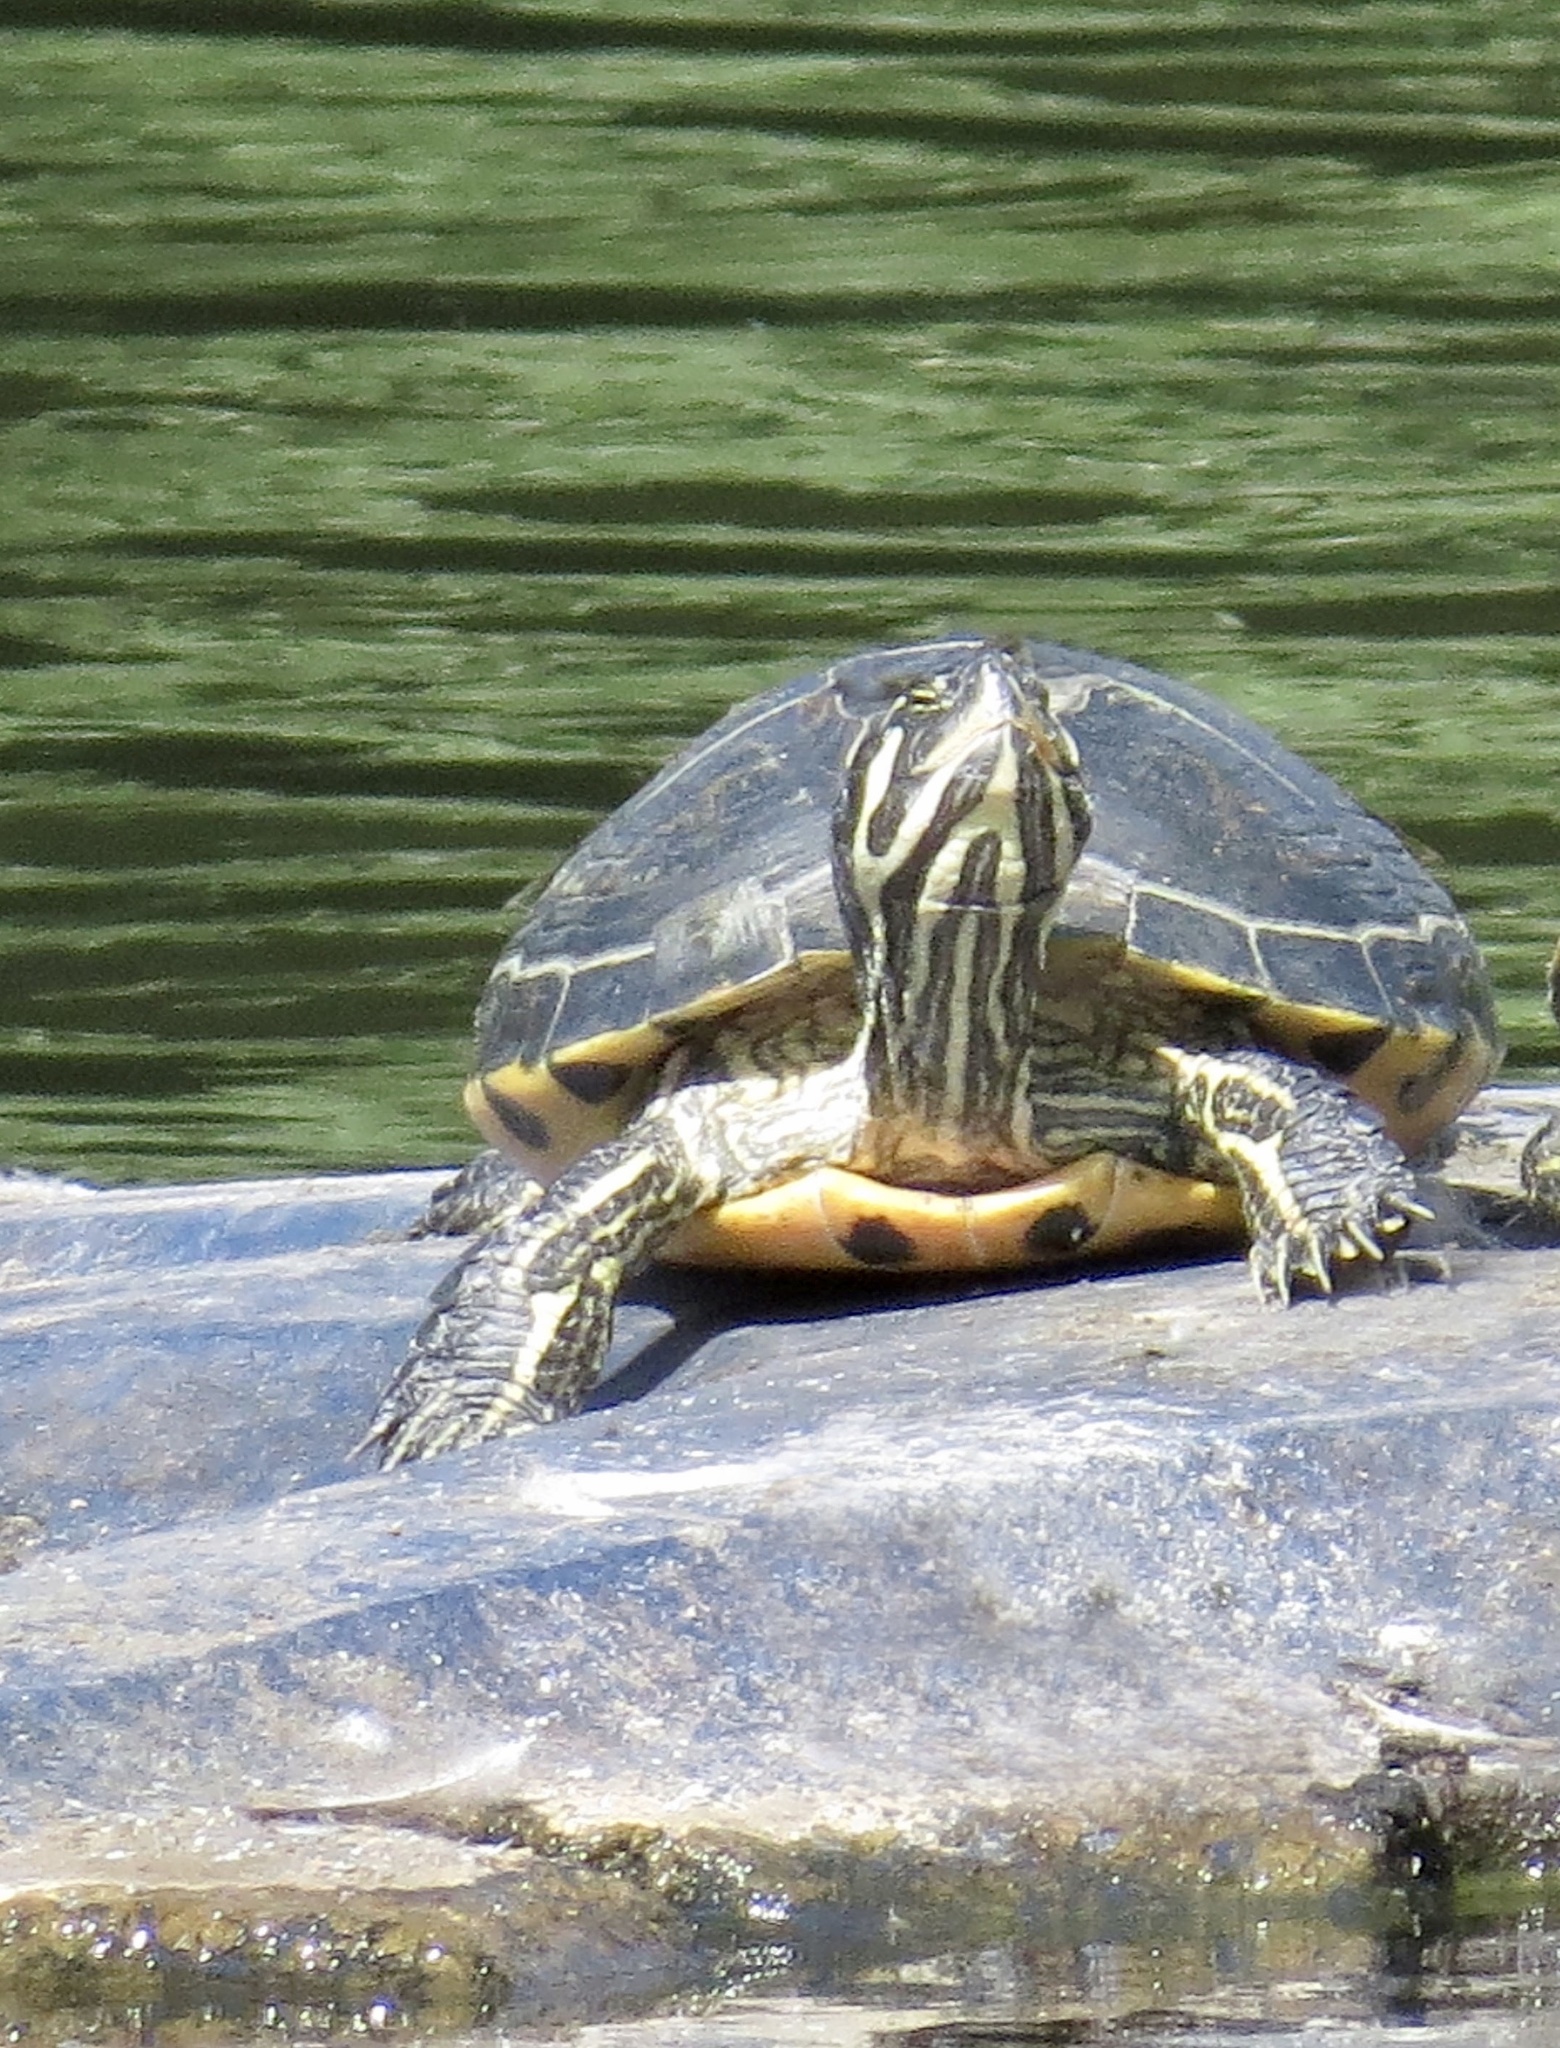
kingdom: Animalia
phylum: Chordata
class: Testudines
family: Emydidae
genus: Trachemys
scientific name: Trachemys scripta
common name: Slider
